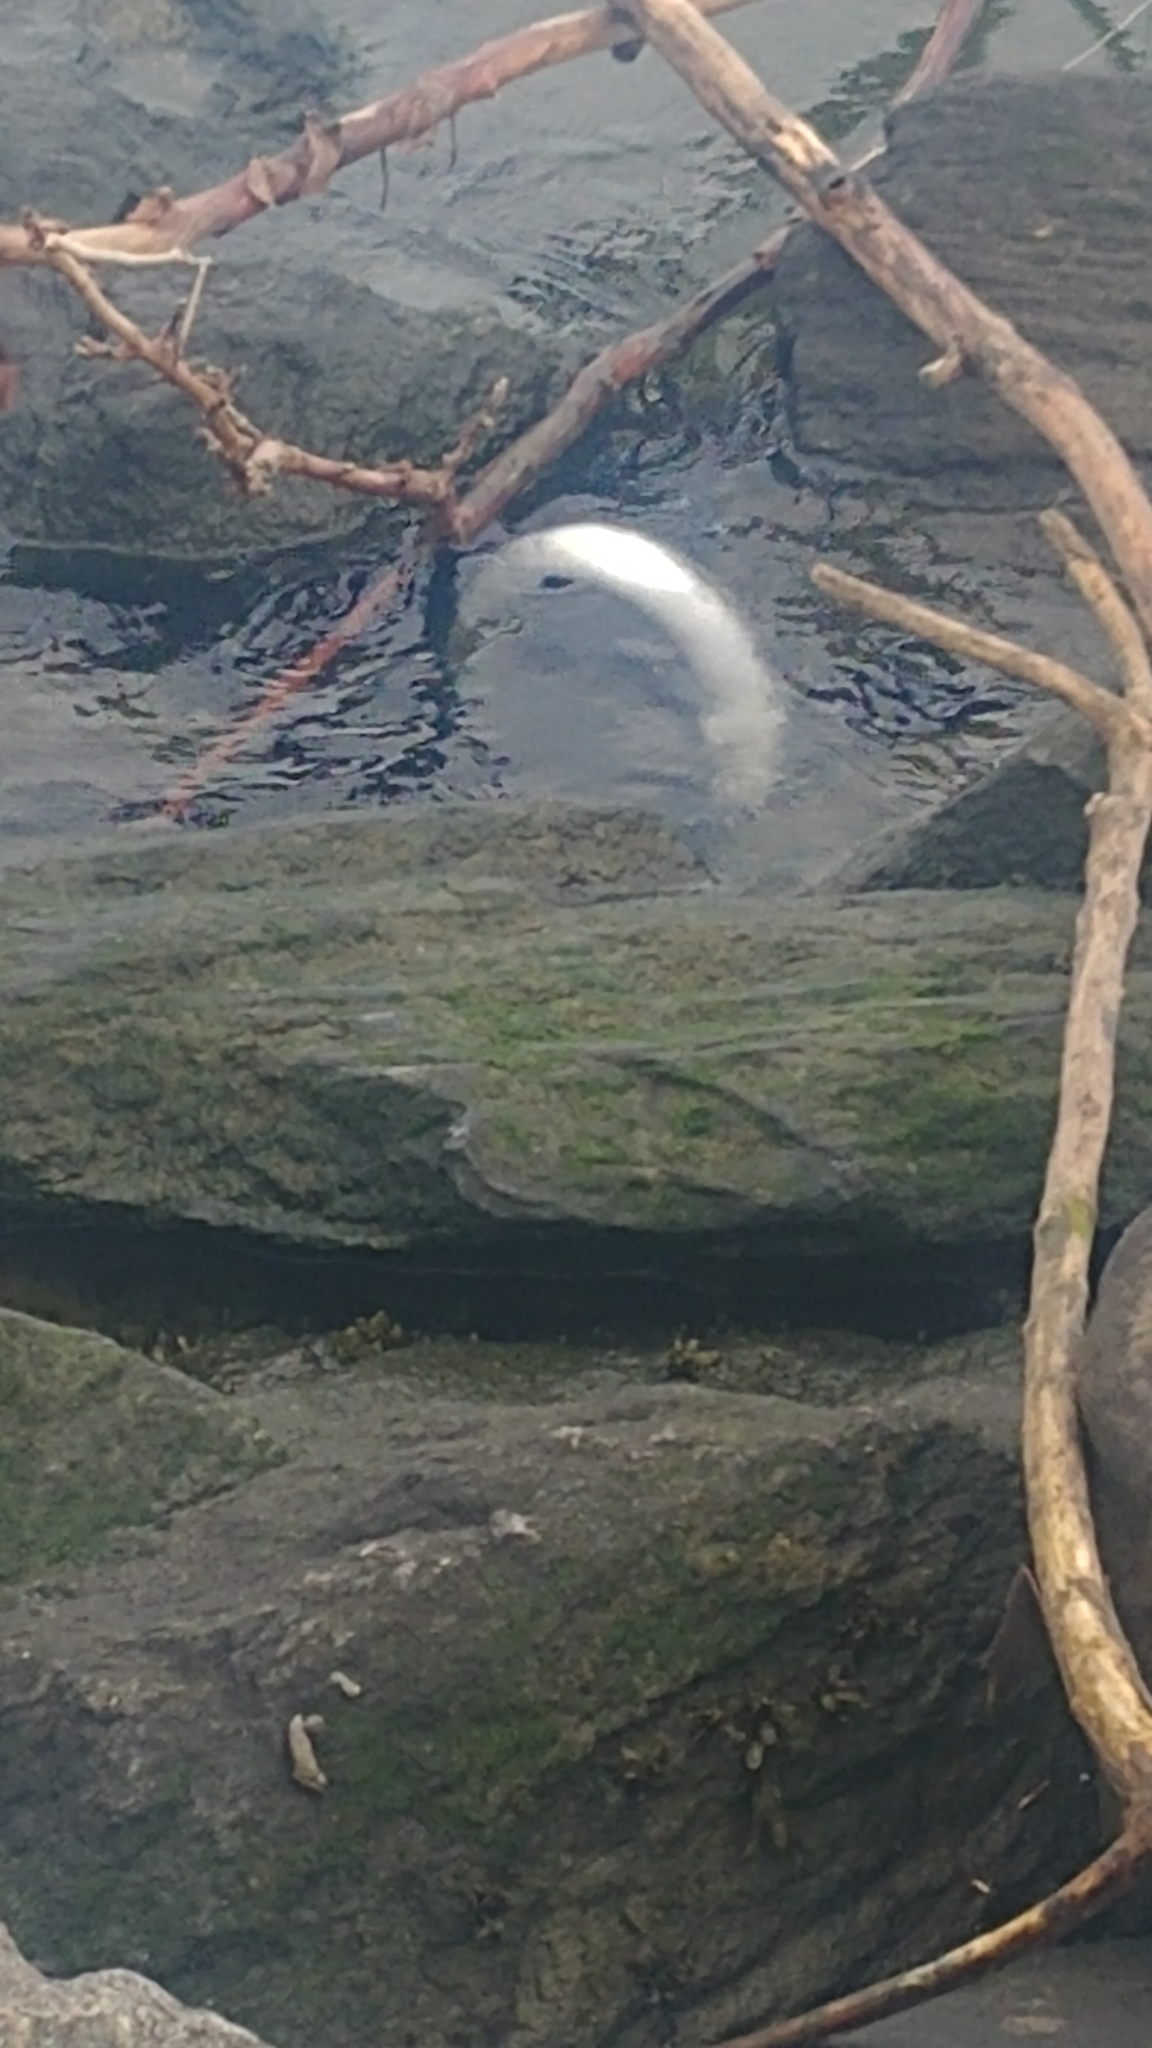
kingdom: Animalia
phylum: Chordata
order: Anguilliformes
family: Anguillidae
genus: Anguilla
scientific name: Anguilla rostrata
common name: American eel
